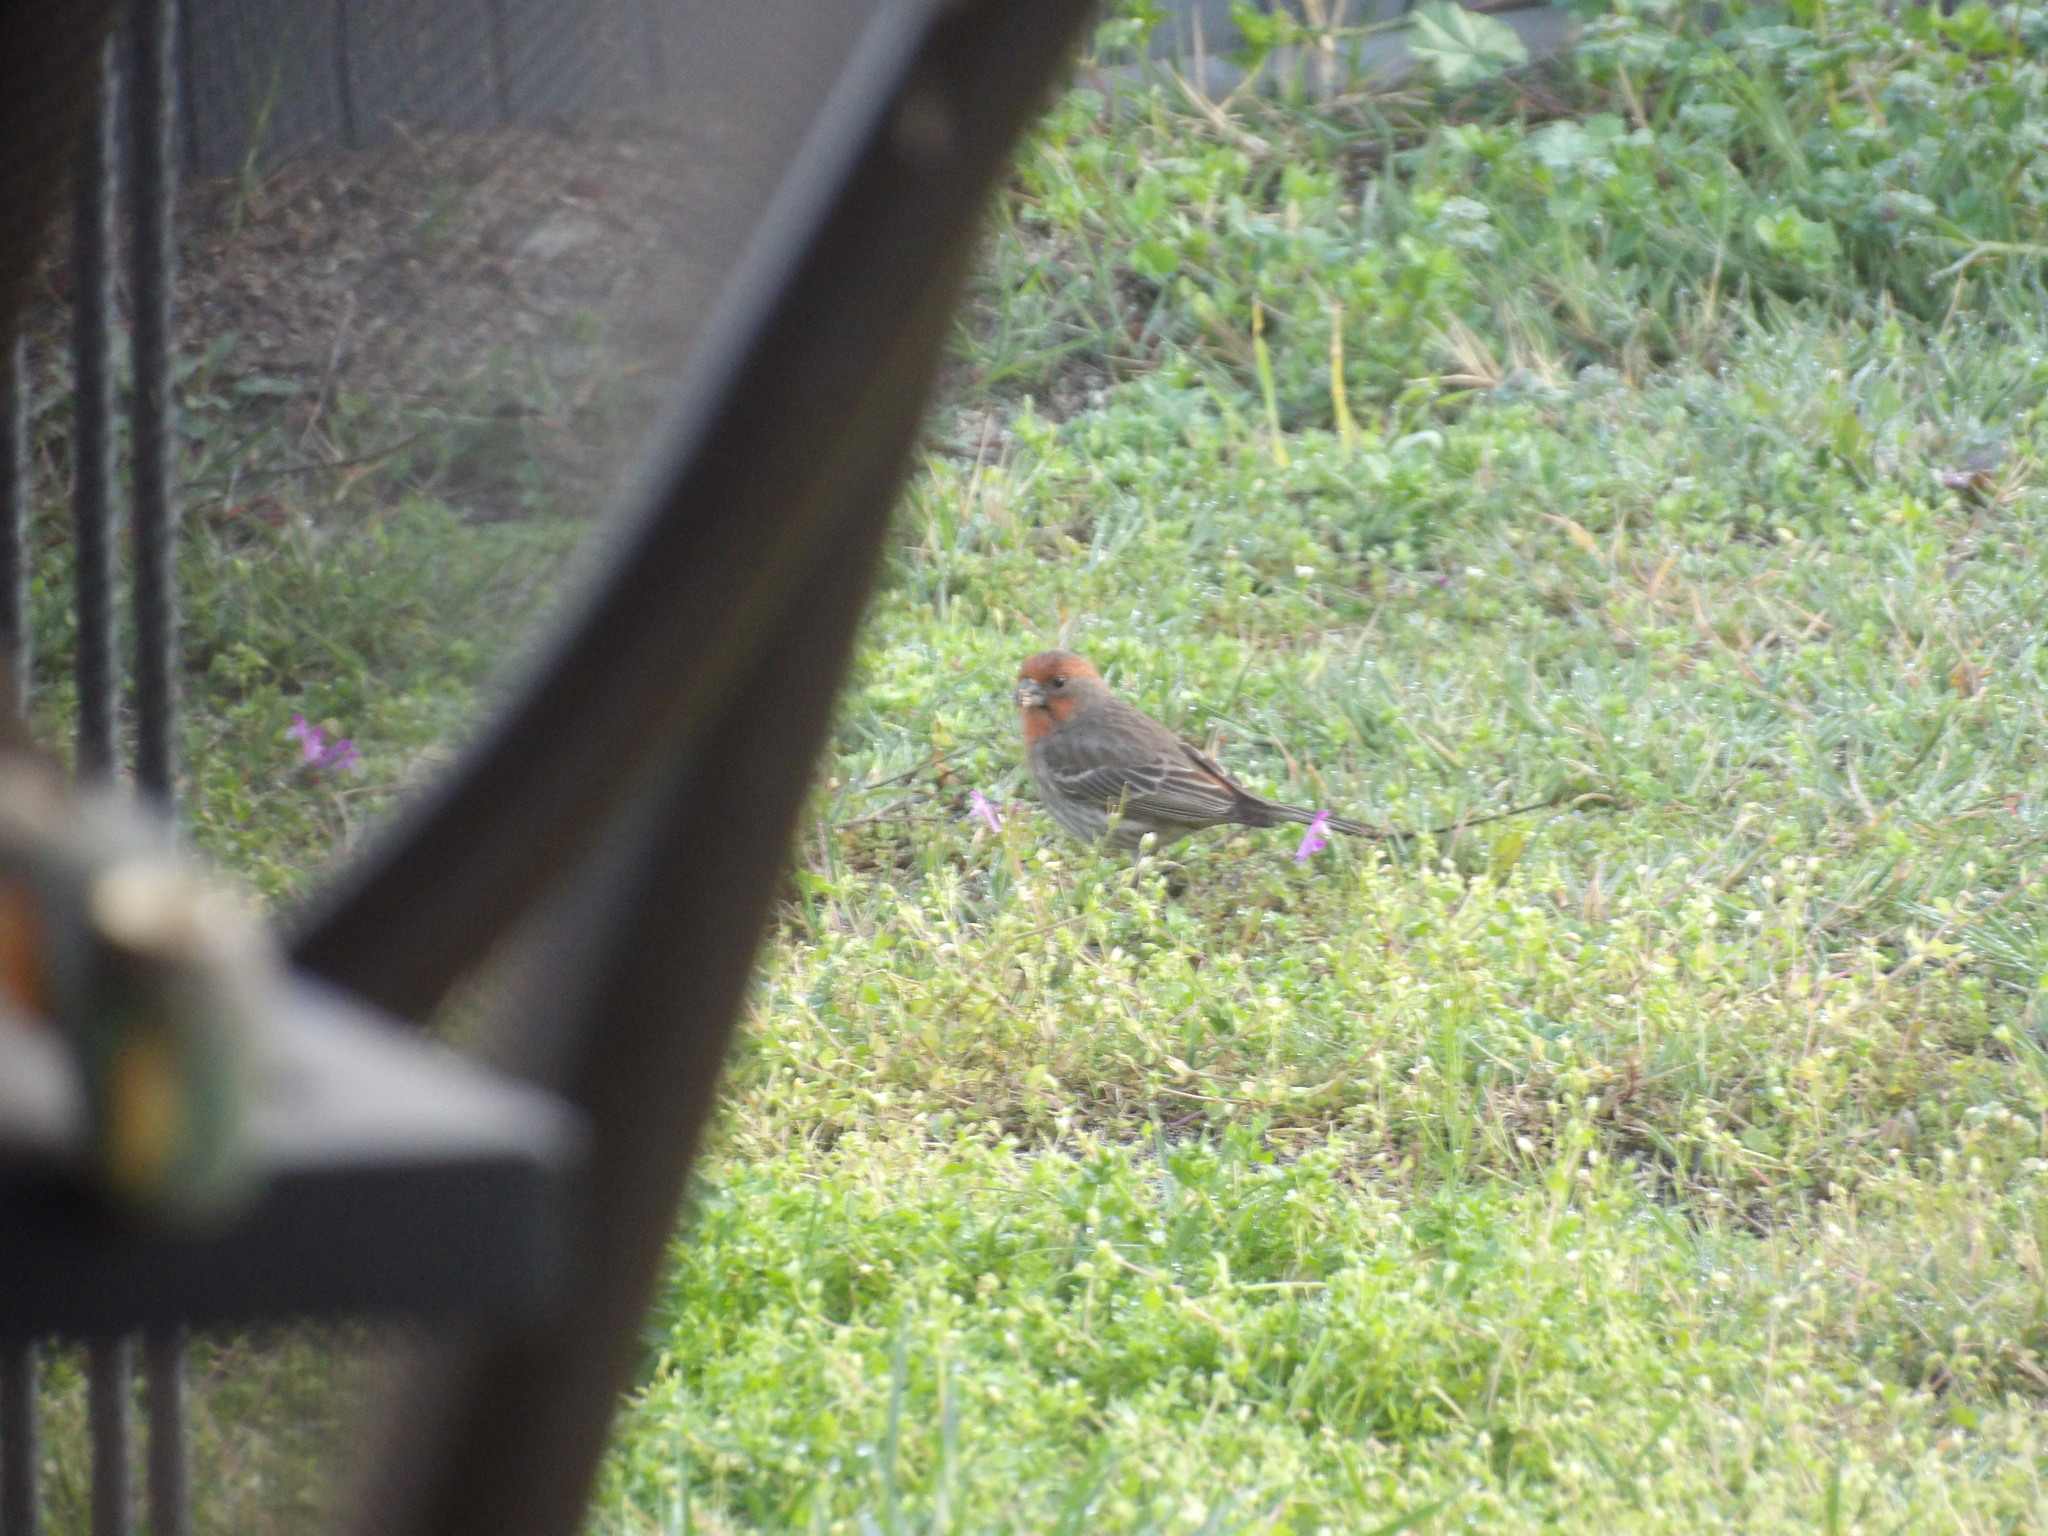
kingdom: Animalia
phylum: Chordata
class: Aves
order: Passeriformes
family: Fringillidae
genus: Haemorhous
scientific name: Haemorhous mexicanus
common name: House finch
